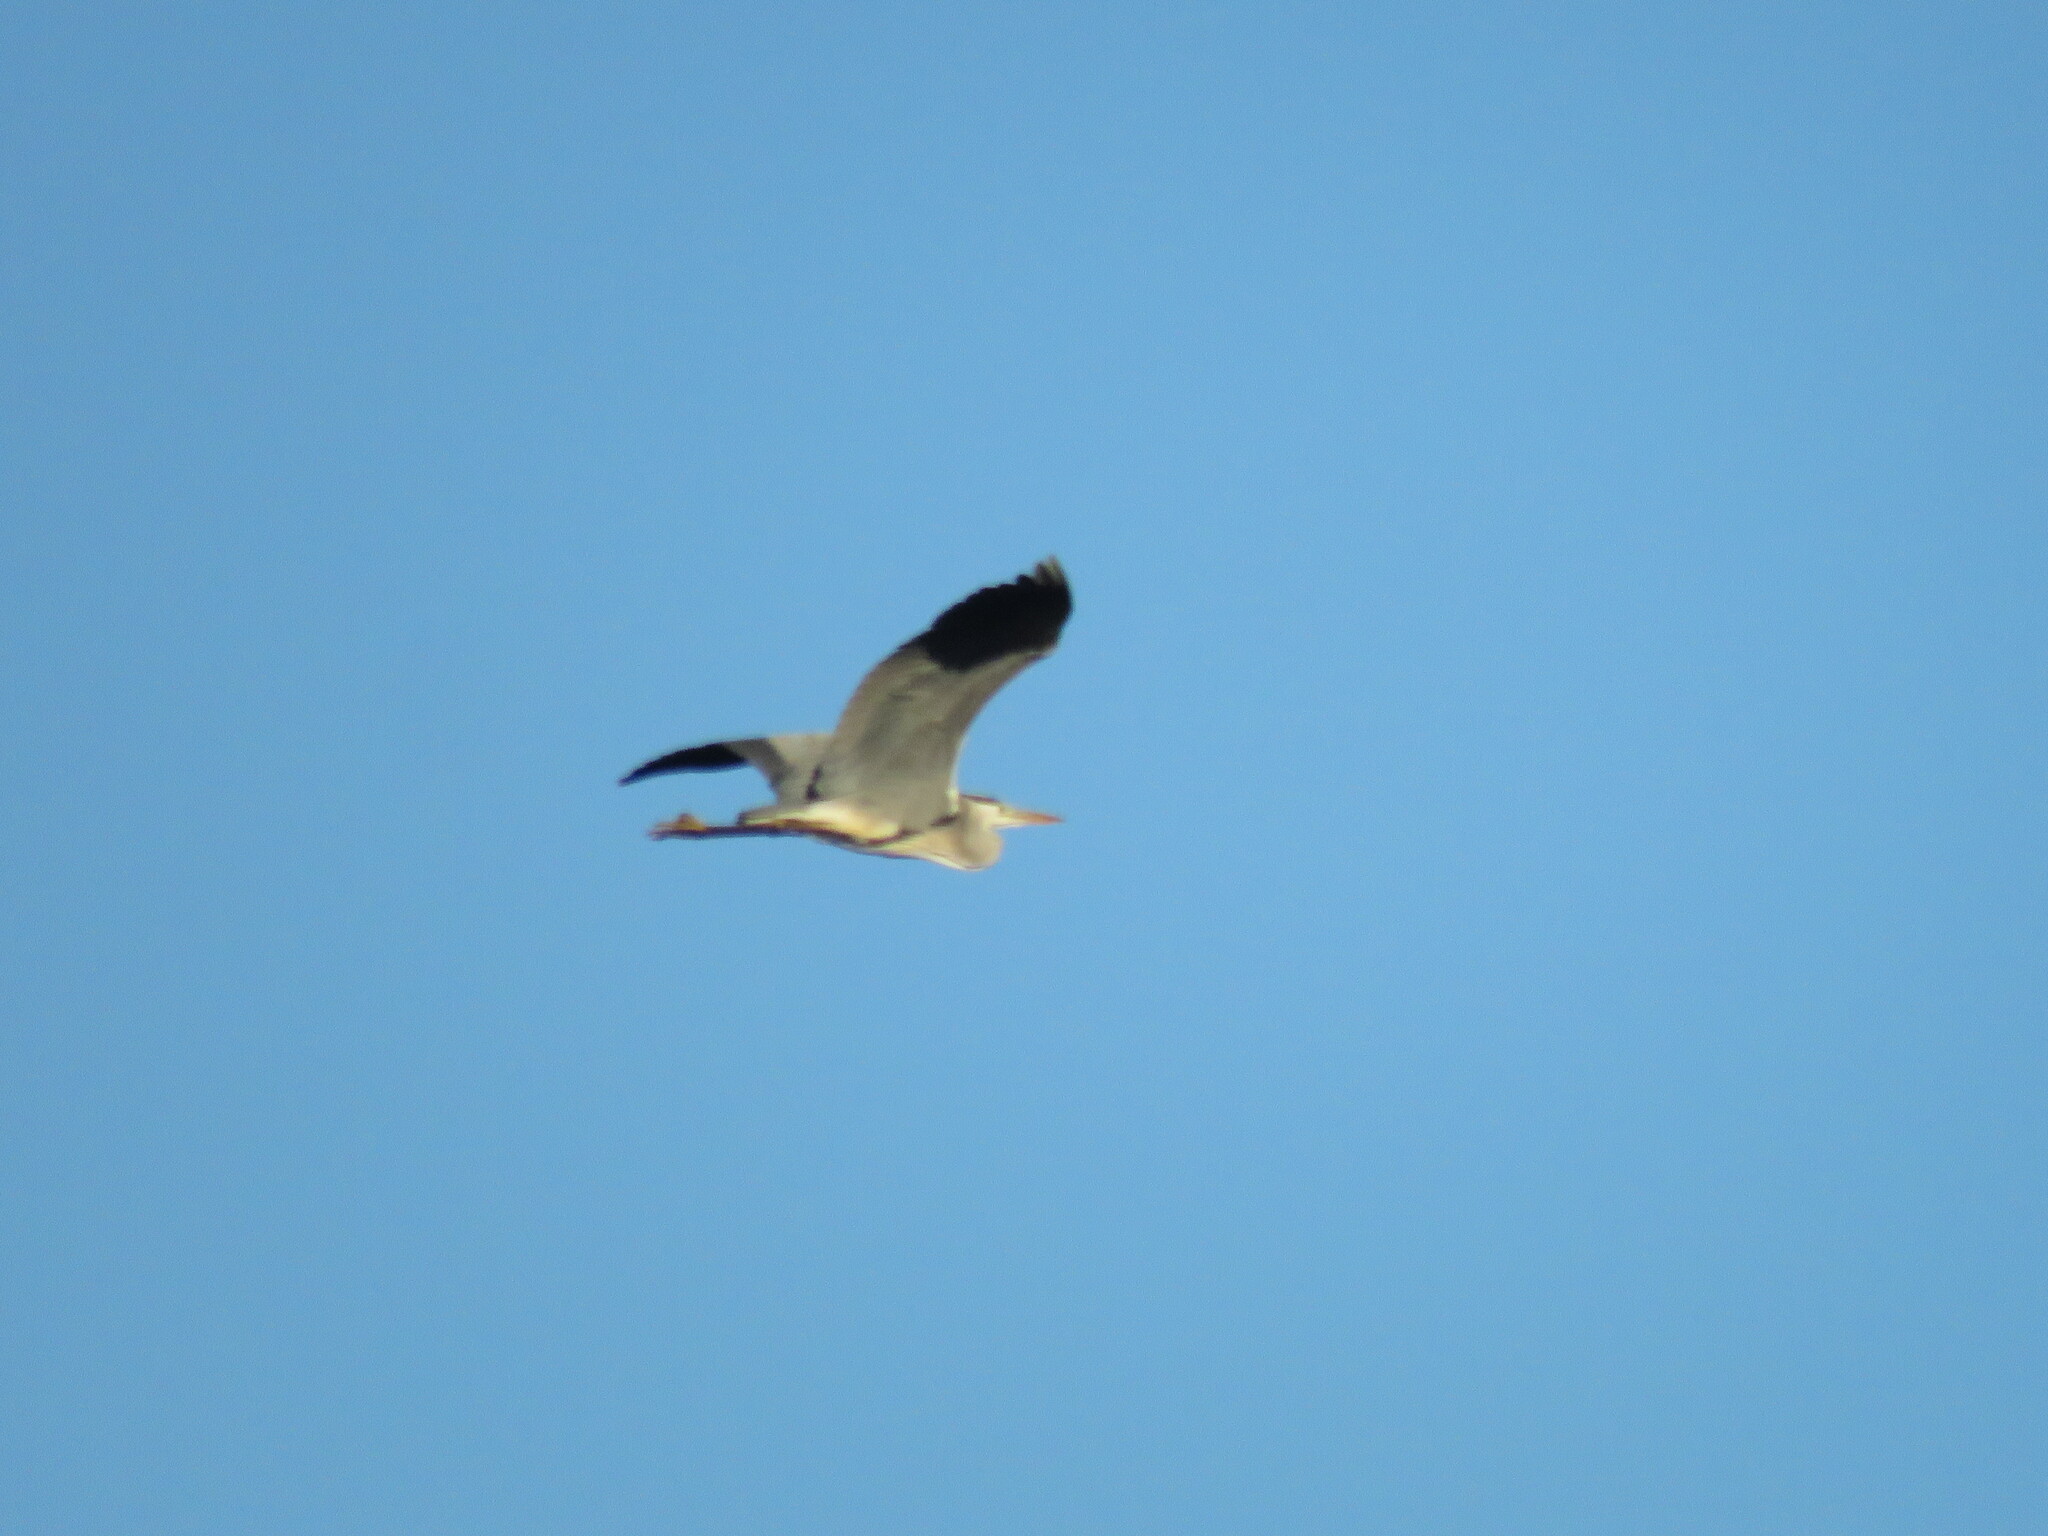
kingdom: Animalia
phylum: Chordata
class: Aves
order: Pelecaniformes
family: Ardeidae
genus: Ardea
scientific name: Ardea cinerea
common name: Grey heron
